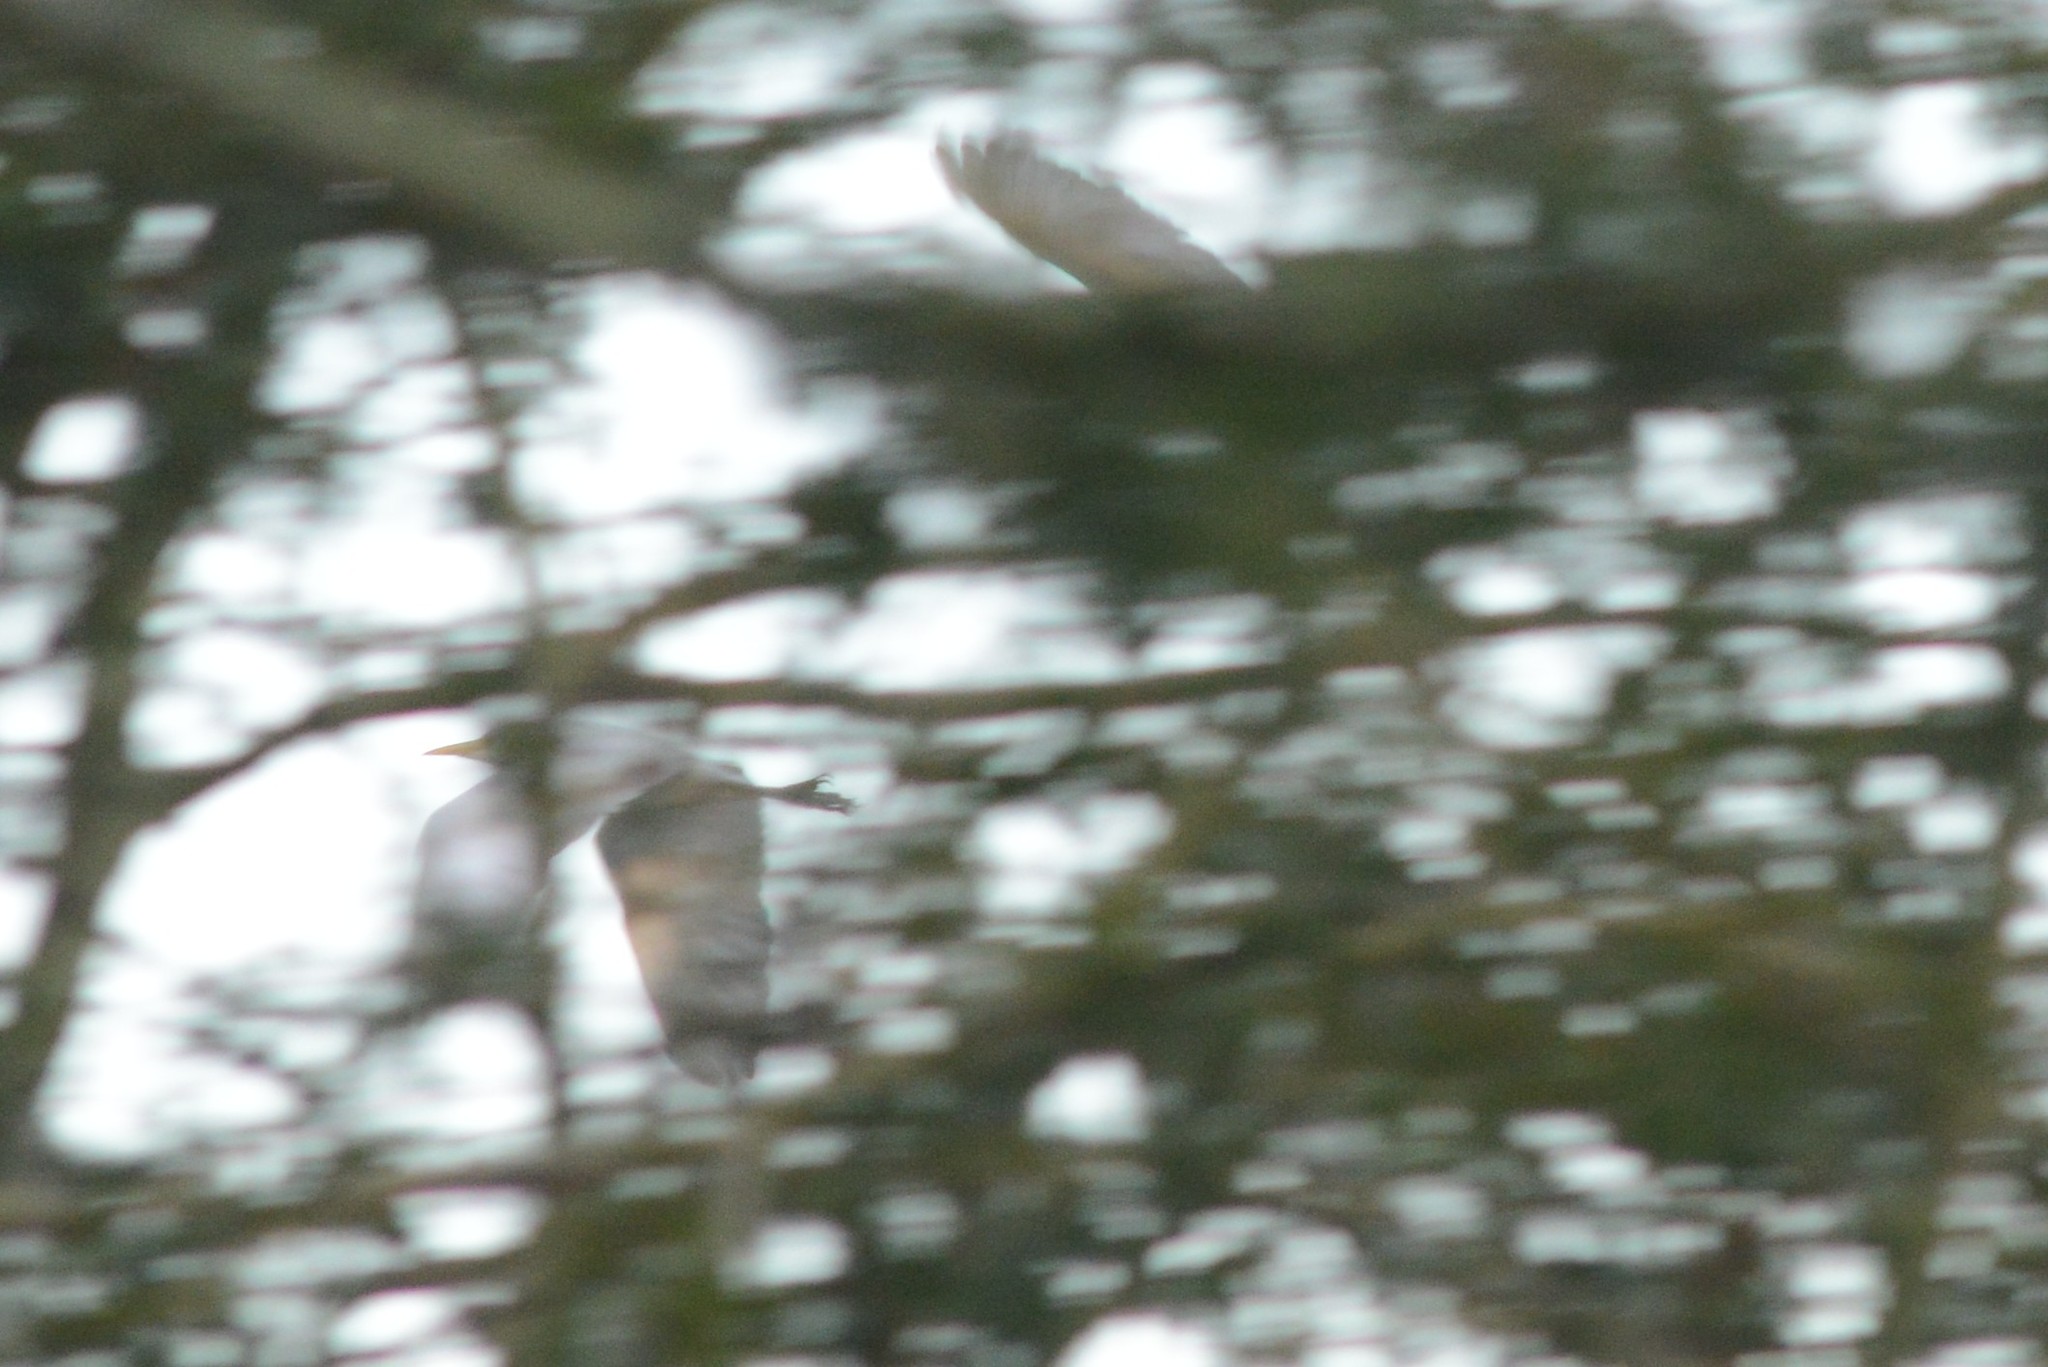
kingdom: Animalia
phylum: Chordata
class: Aves
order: Pelecaniformes
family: Ardeidae
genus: Bubulcus
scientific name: Bubulcus ibis
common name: Cattle egret
